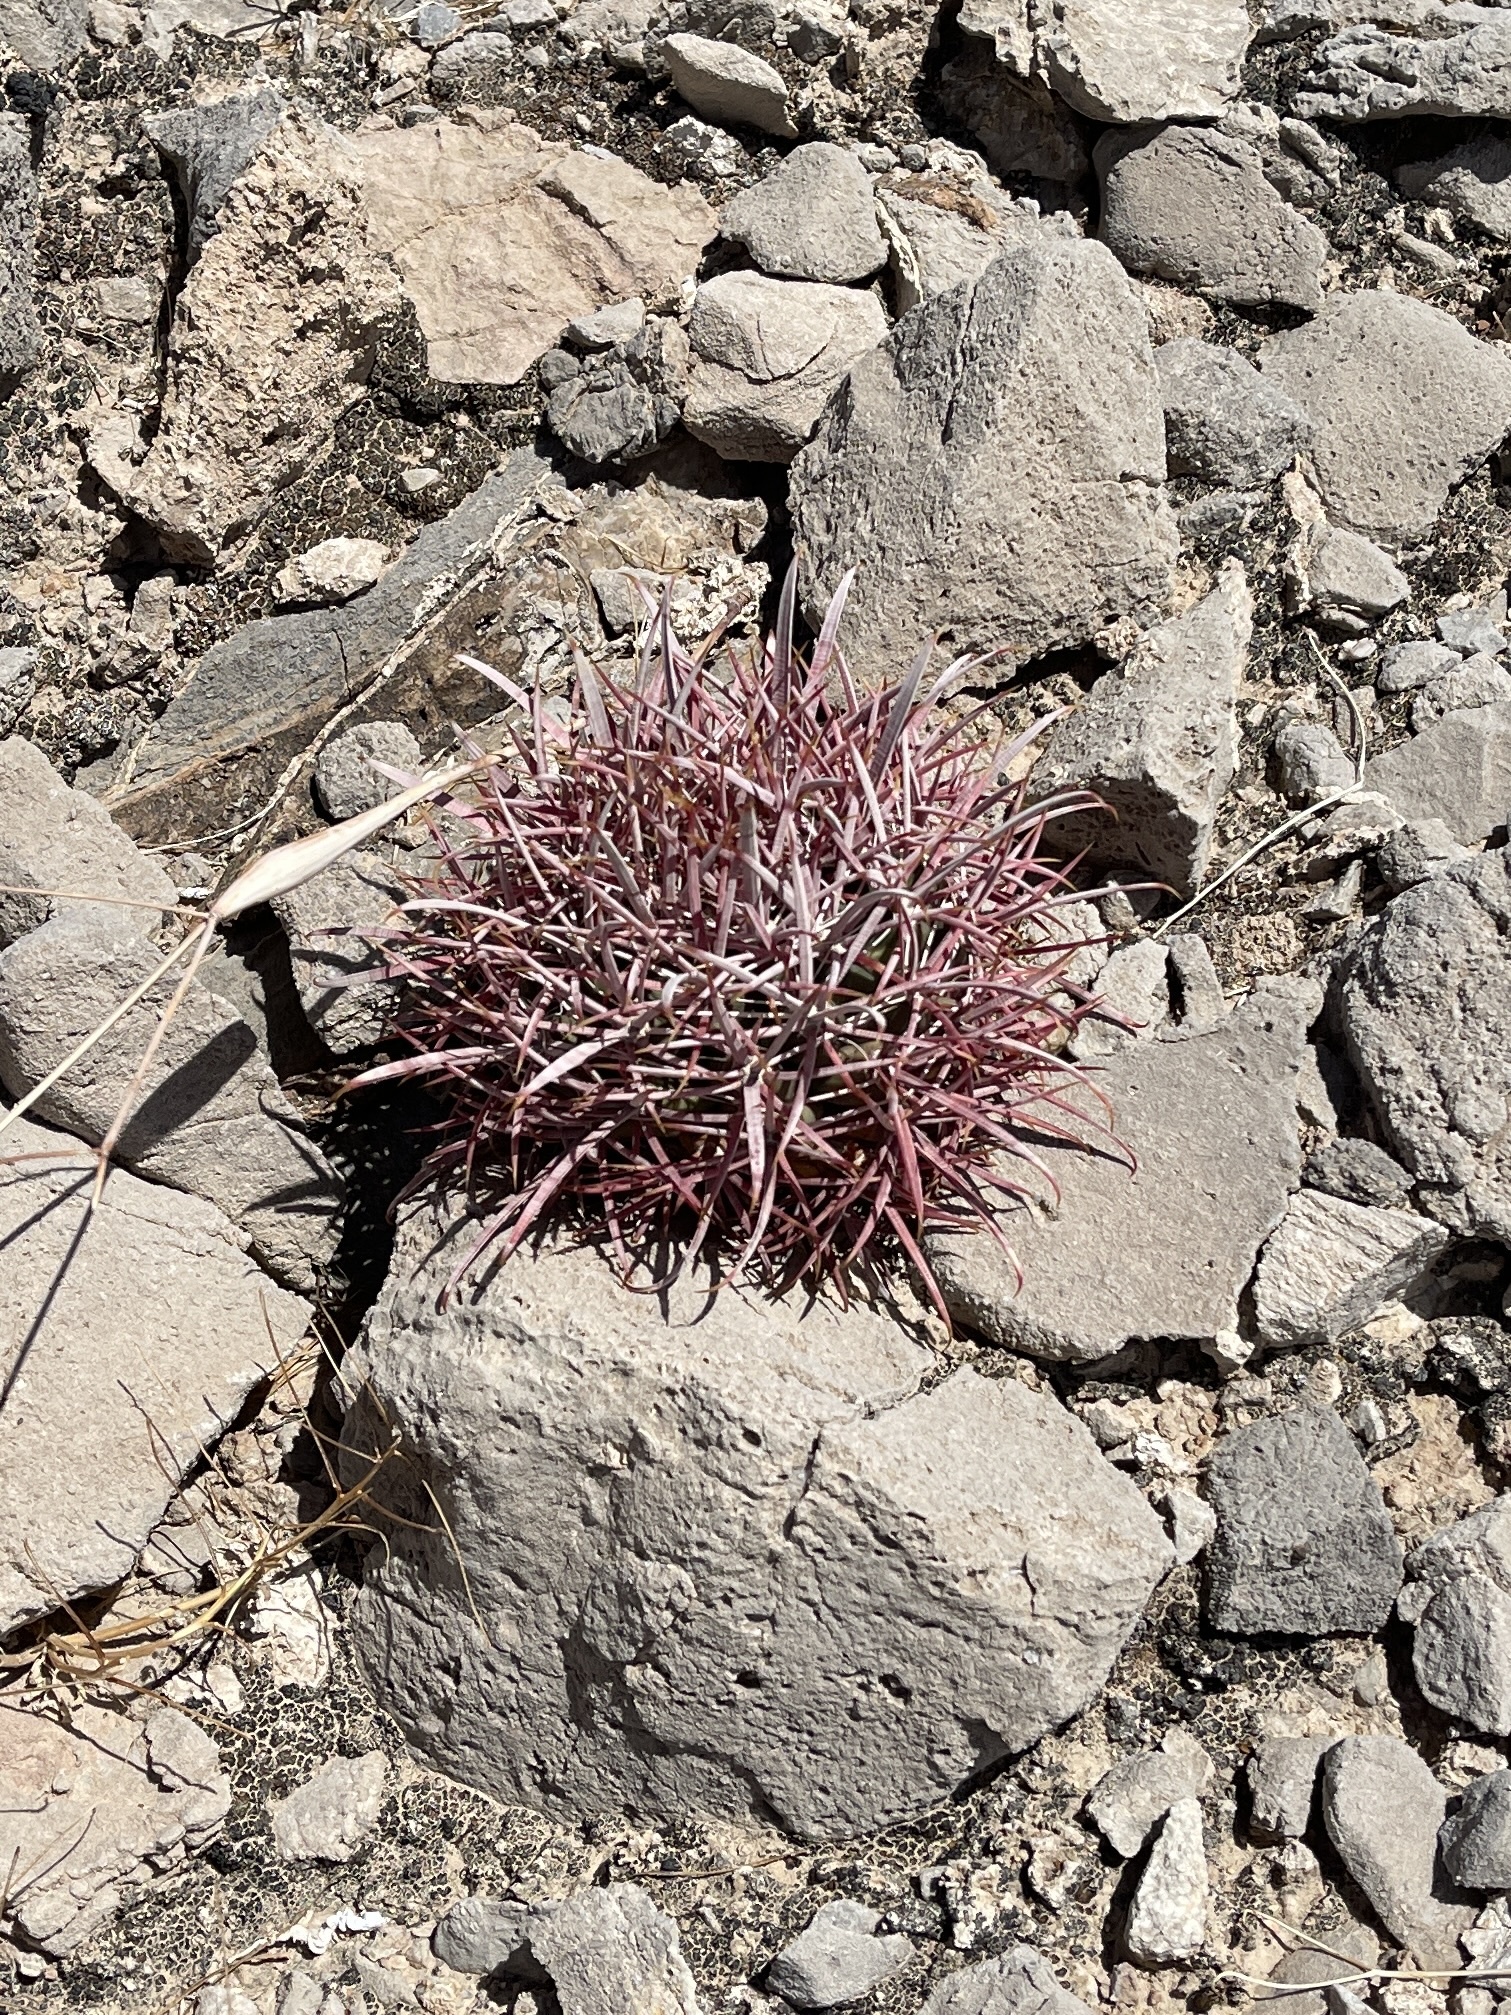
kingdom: Plantae
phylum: Tracheophyta
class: Magnoliopsida
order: Caryophyllales
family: Cactaceae
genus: Ferocactus
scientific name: Ferocactus cylindraceus
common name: California barrel cactus
